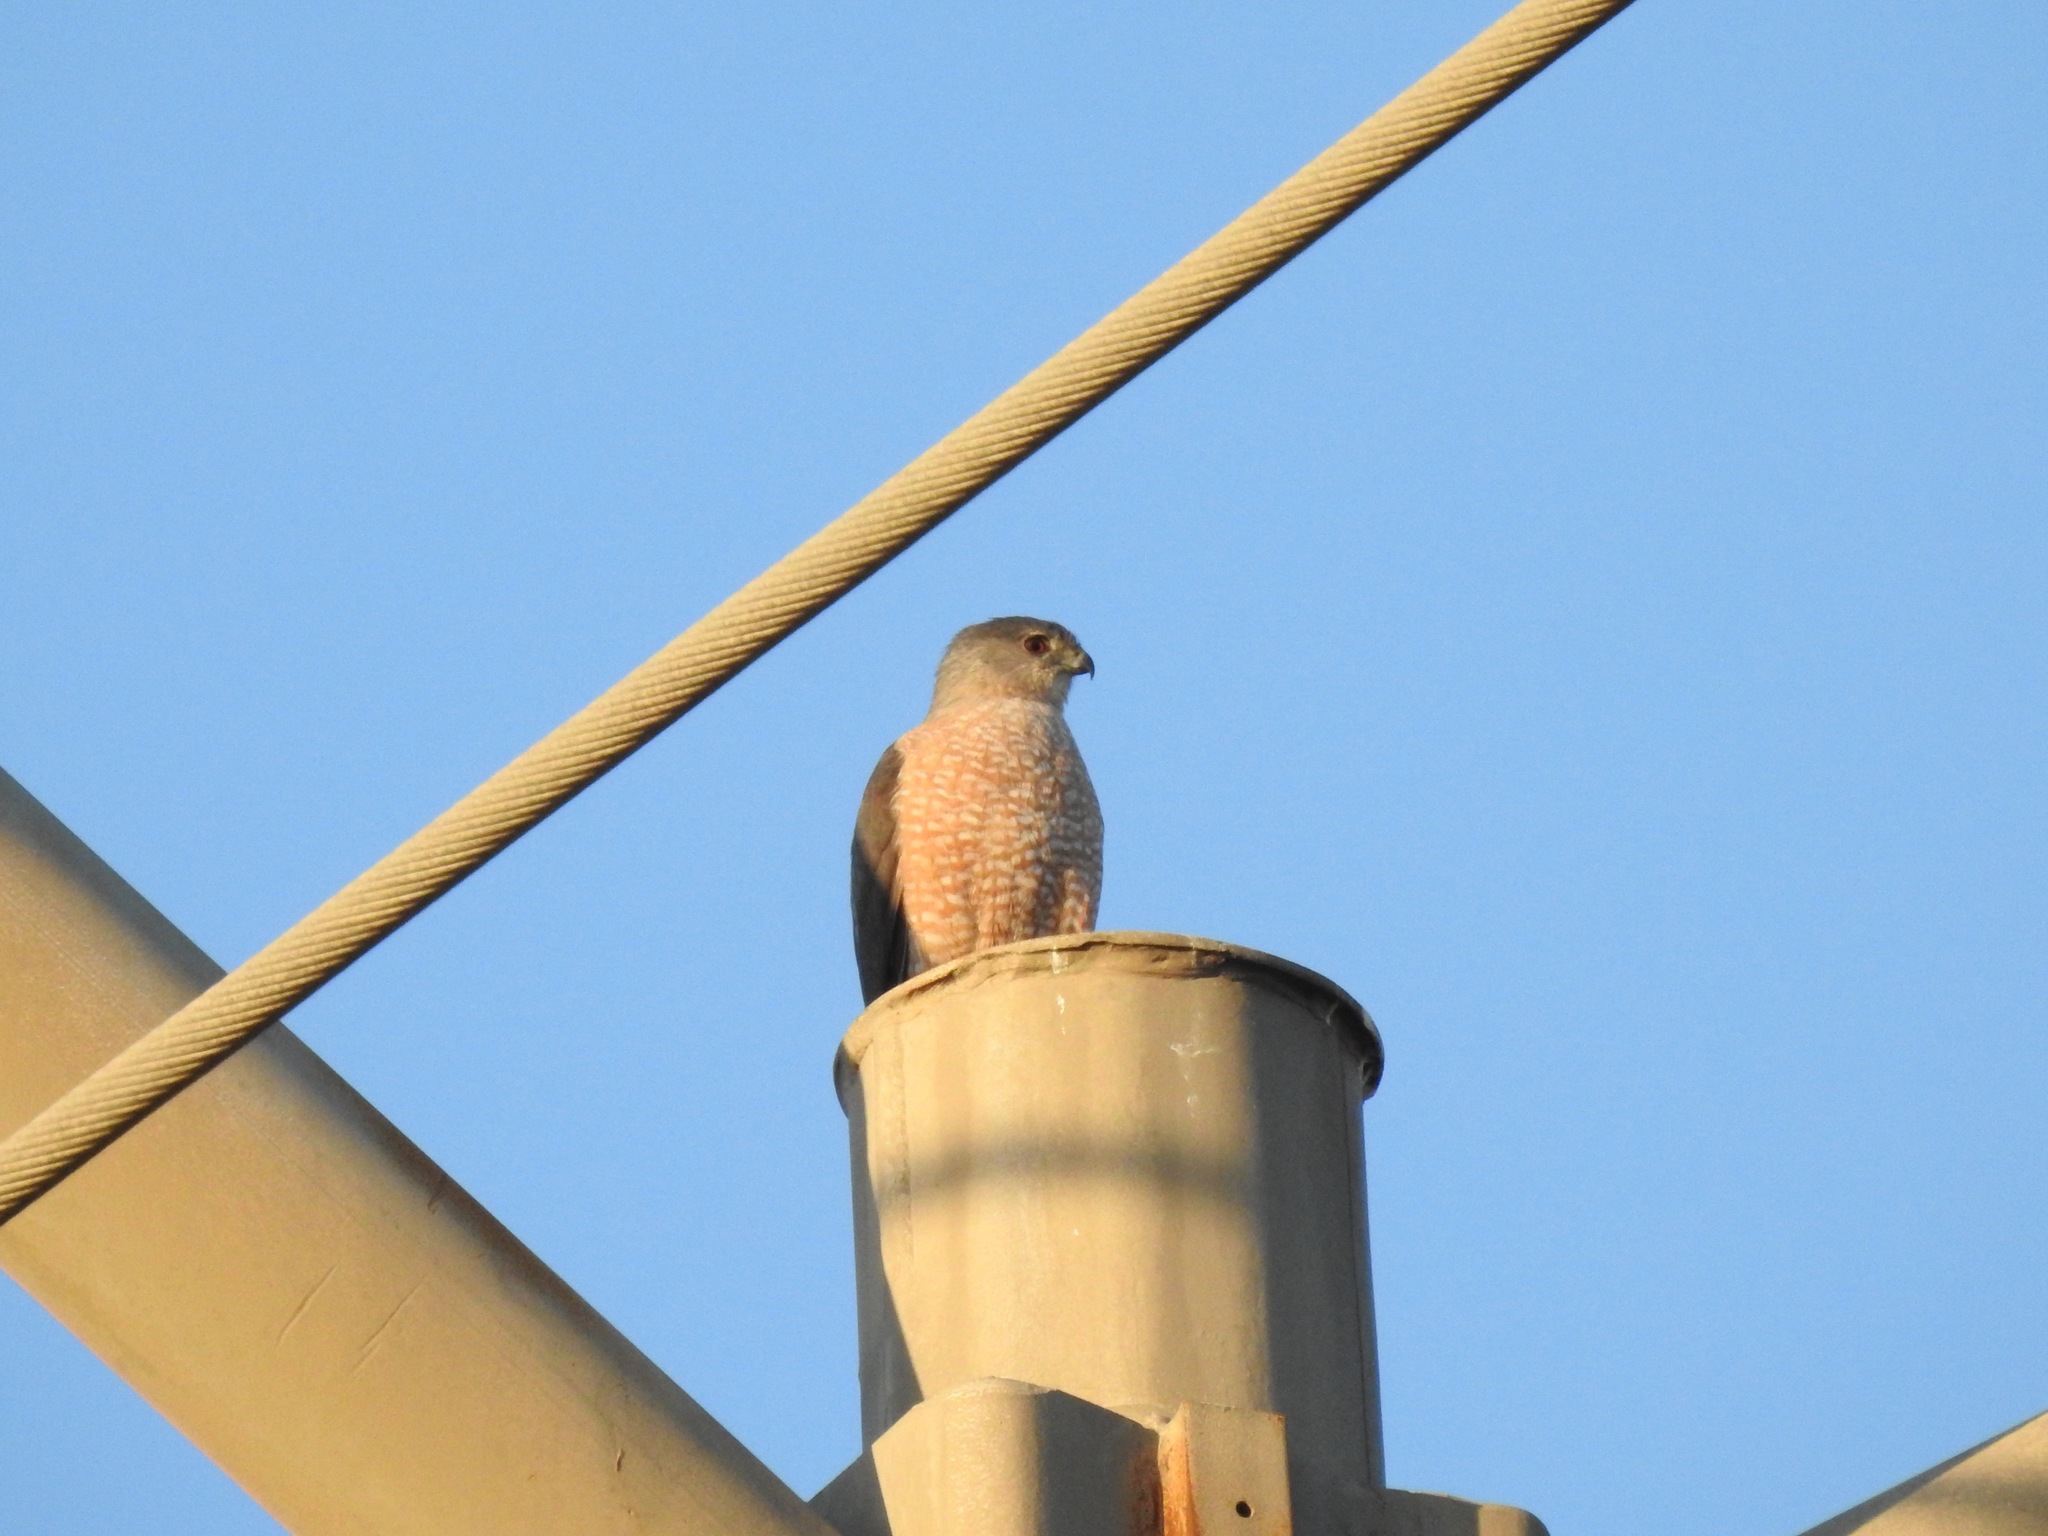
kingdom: Animalia
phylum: Chordata
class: Aves
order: Accipitriformes
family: Accipitridae
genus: Accipiter
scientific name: Accipiter cooperii
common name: Cooper's hawk
